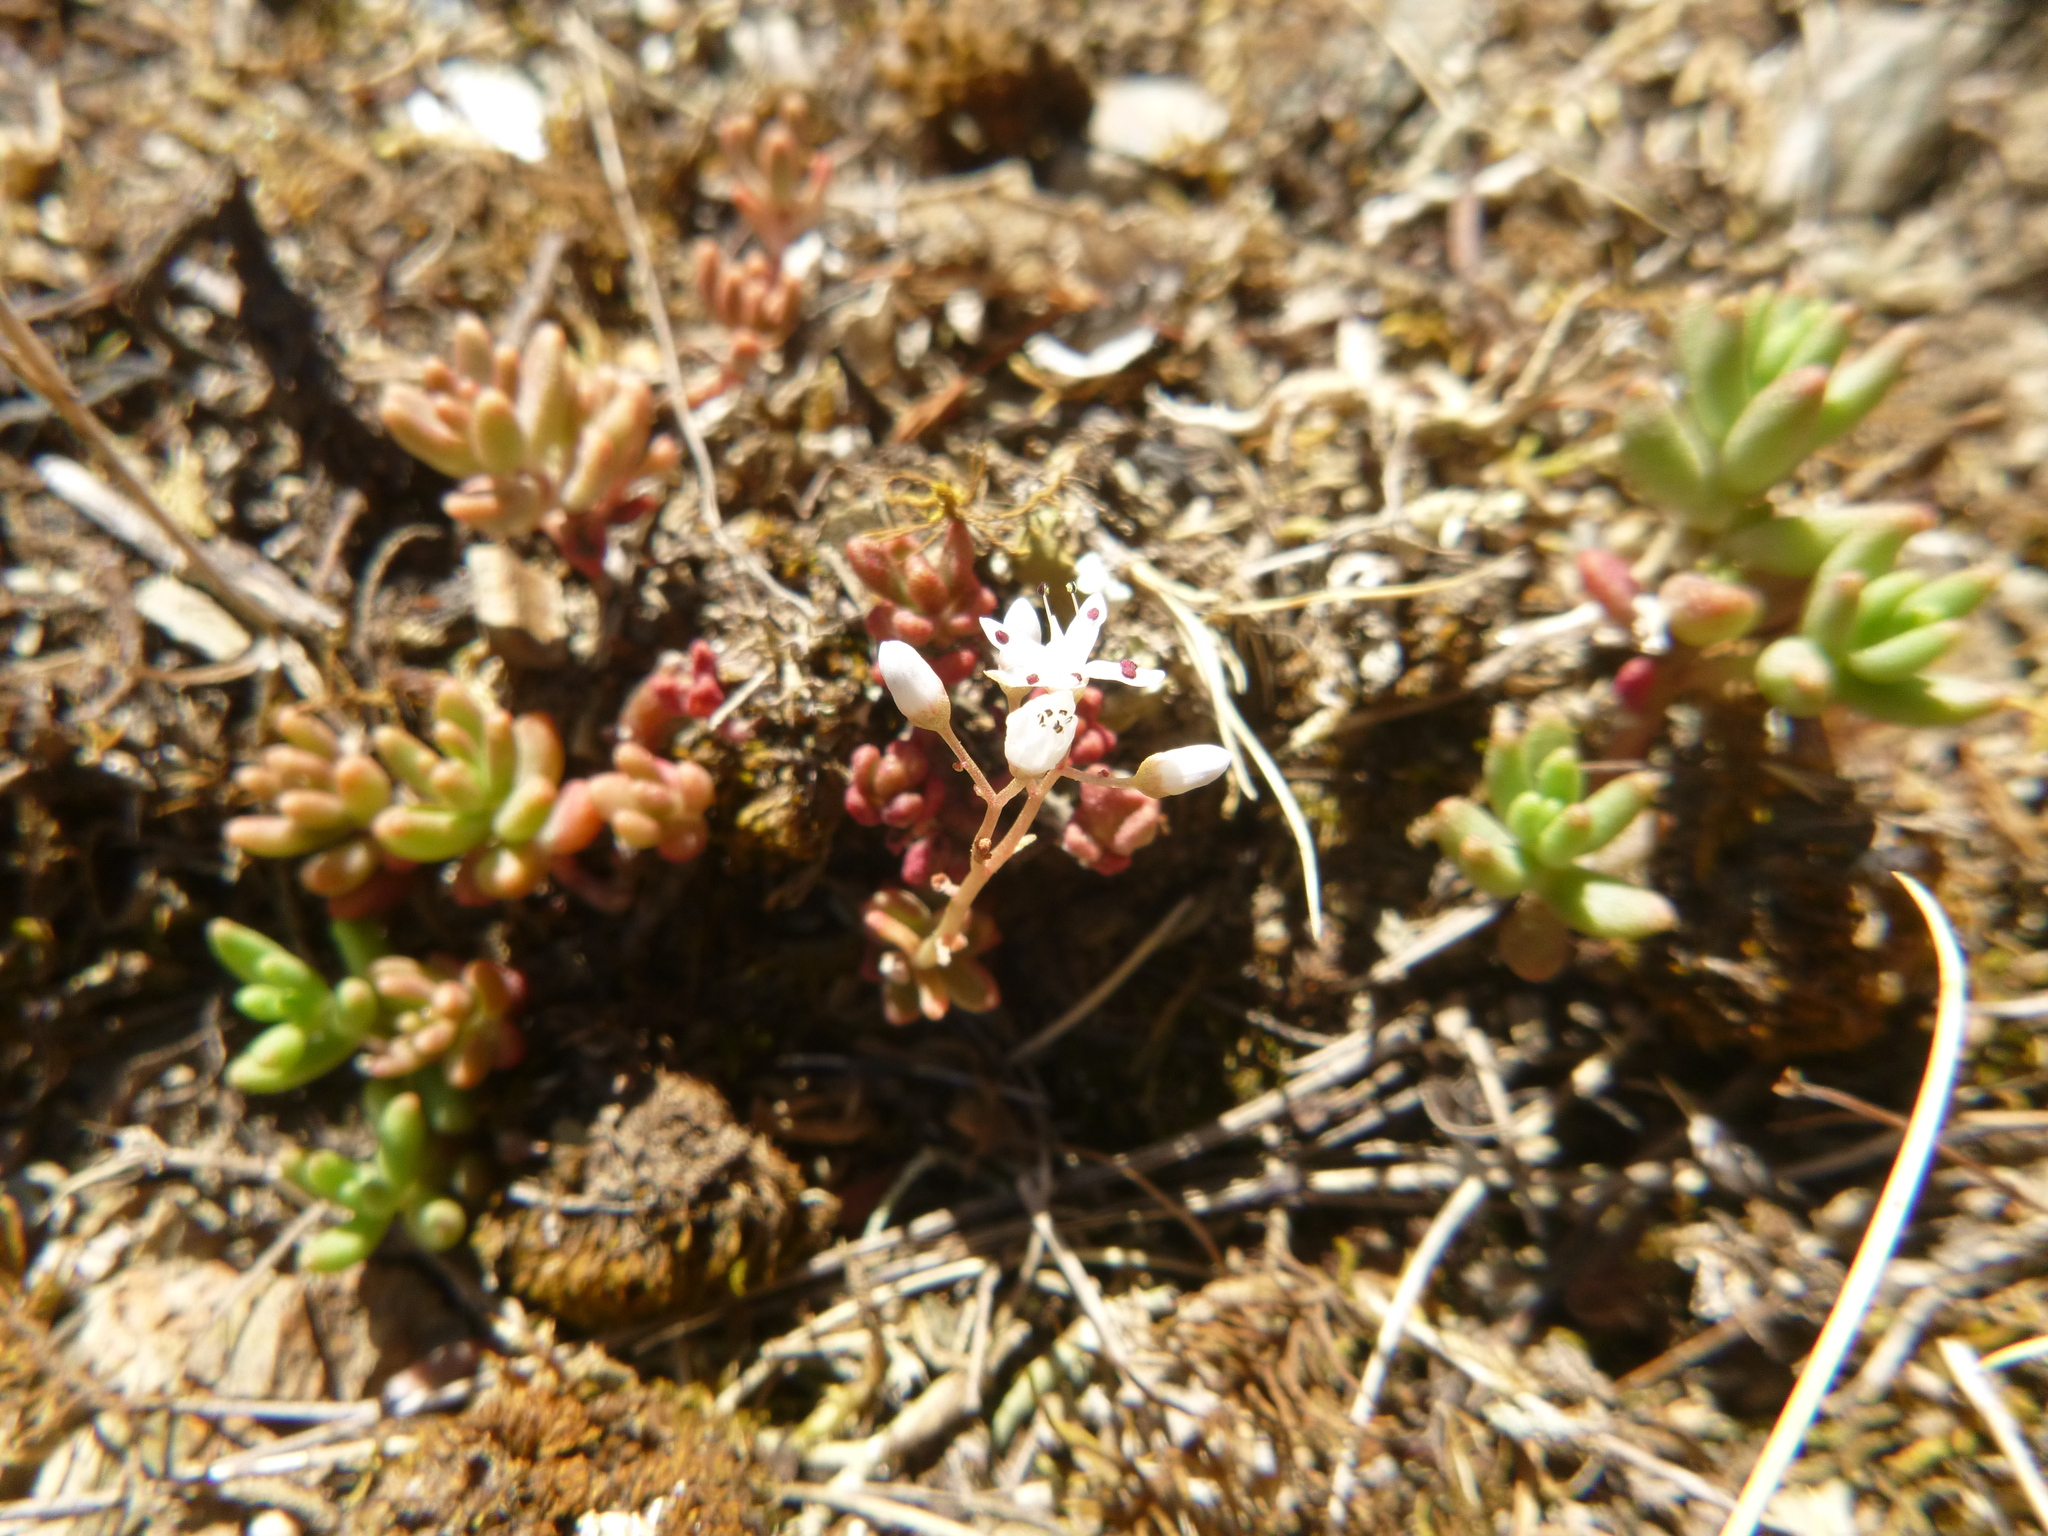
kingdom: Plantae
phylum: Tracheophyta
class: Magnoliopsida
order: Saxifragales
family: Crassulaceae
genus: Sedum
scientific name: Sedum album
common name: White stonecrop
